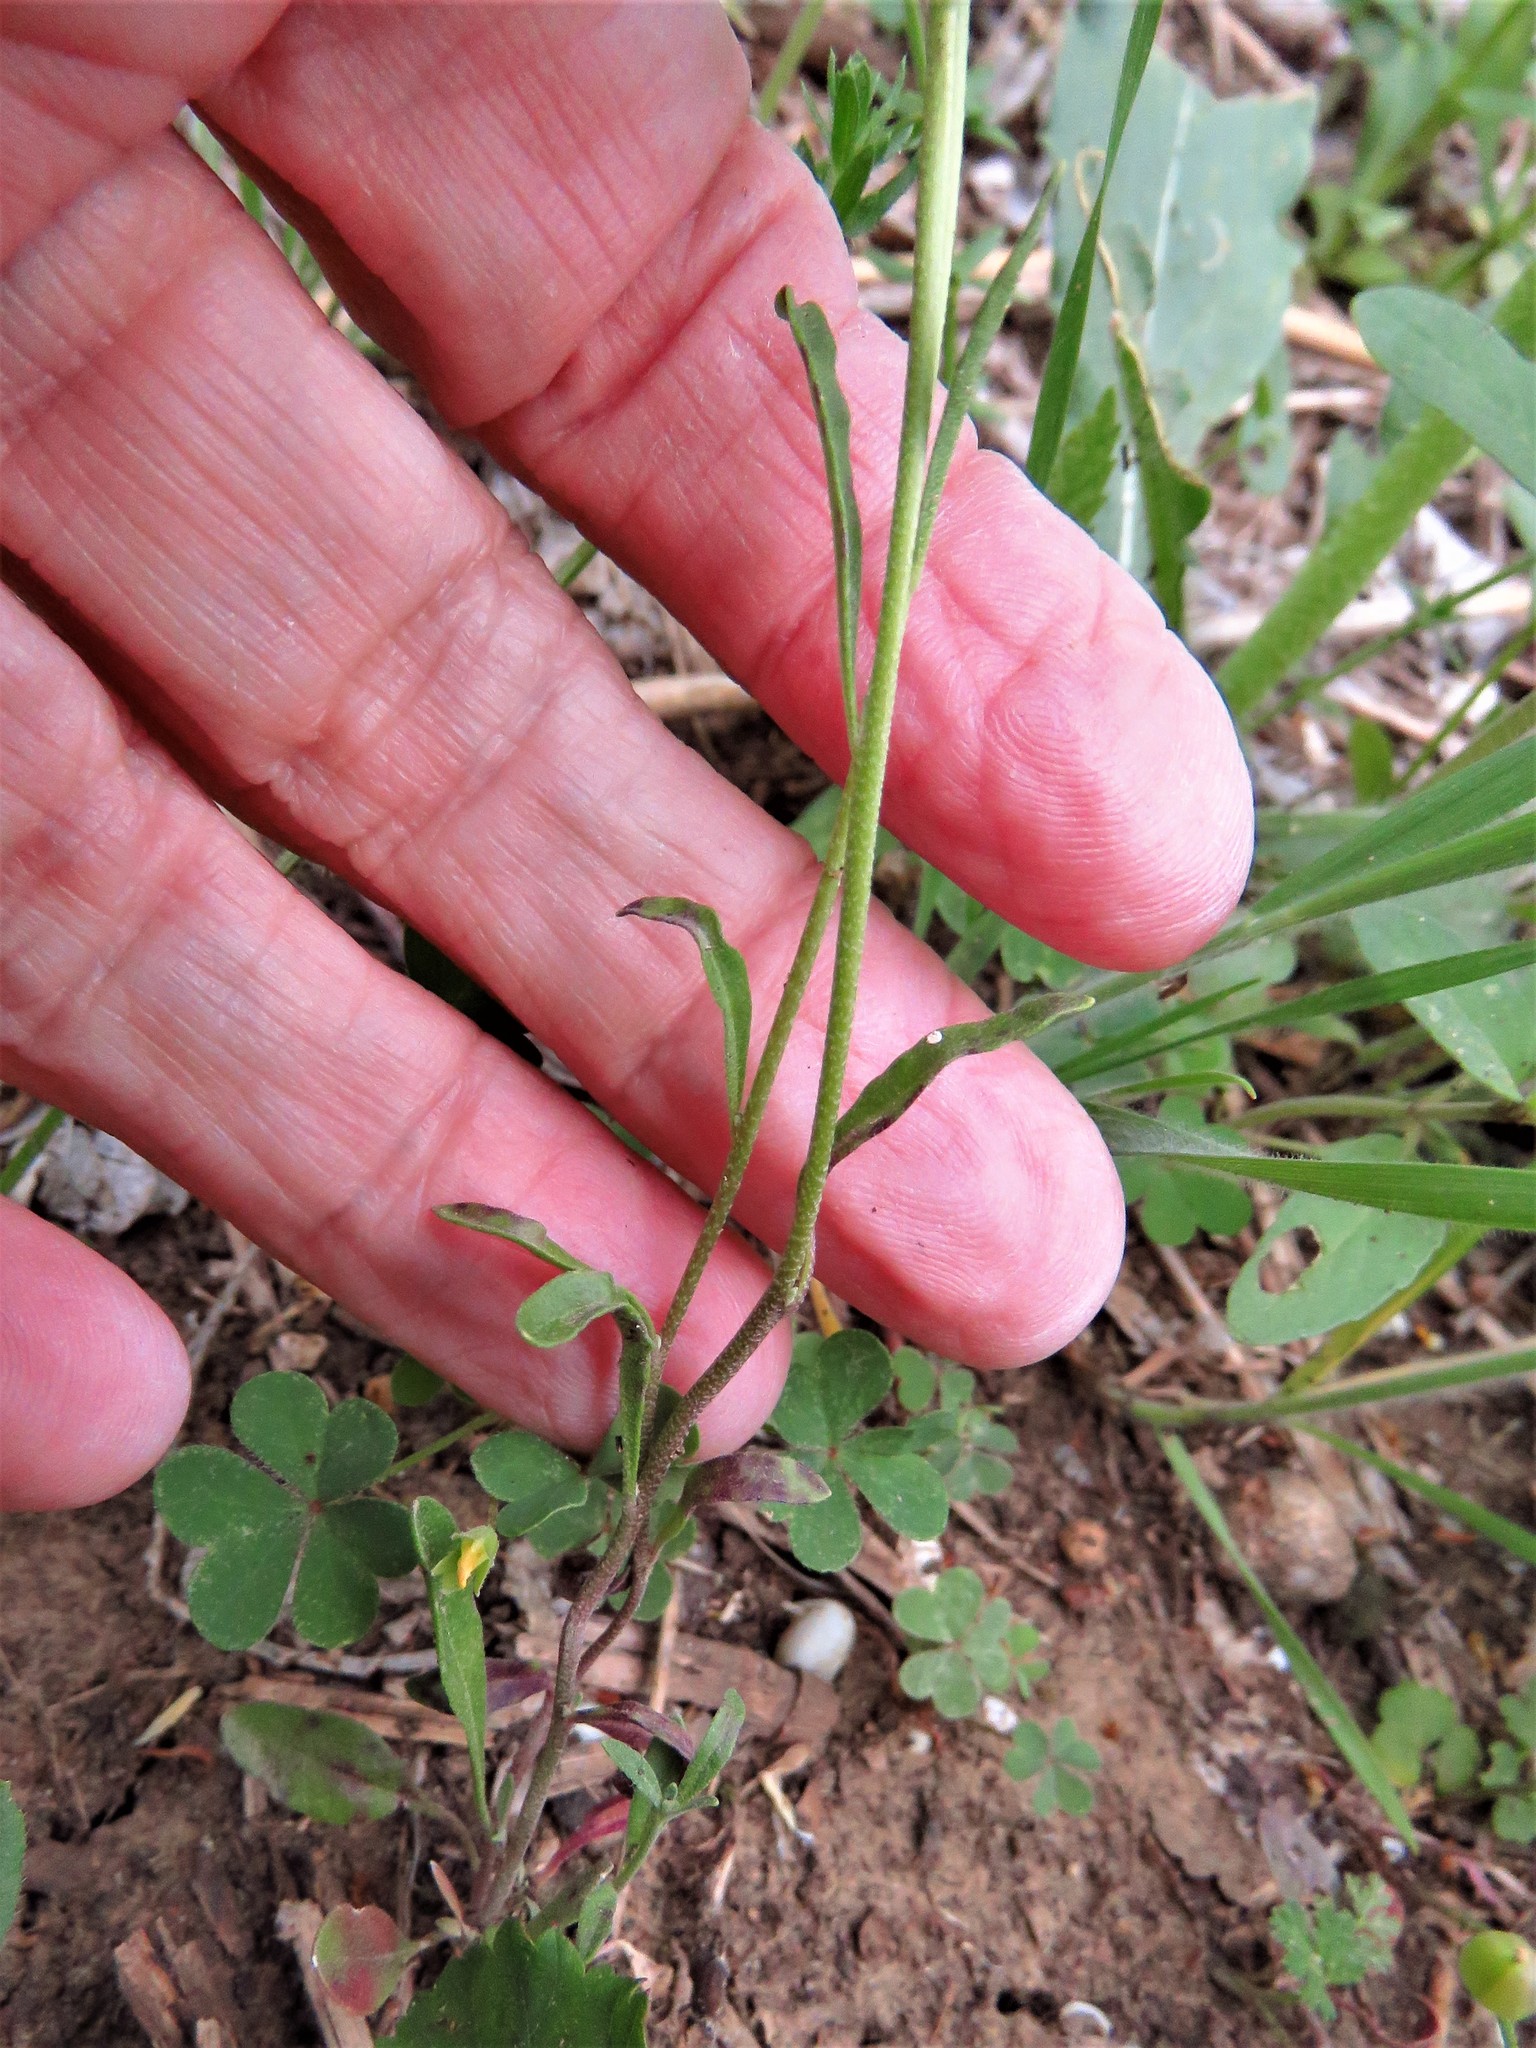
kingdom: Plantae
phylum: Tracheophyta
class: Magnoliopsida
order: Brassicales
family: Brassicaceae
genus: Physaria
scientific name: Physaria gracilis
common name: Spreading bladderpod
